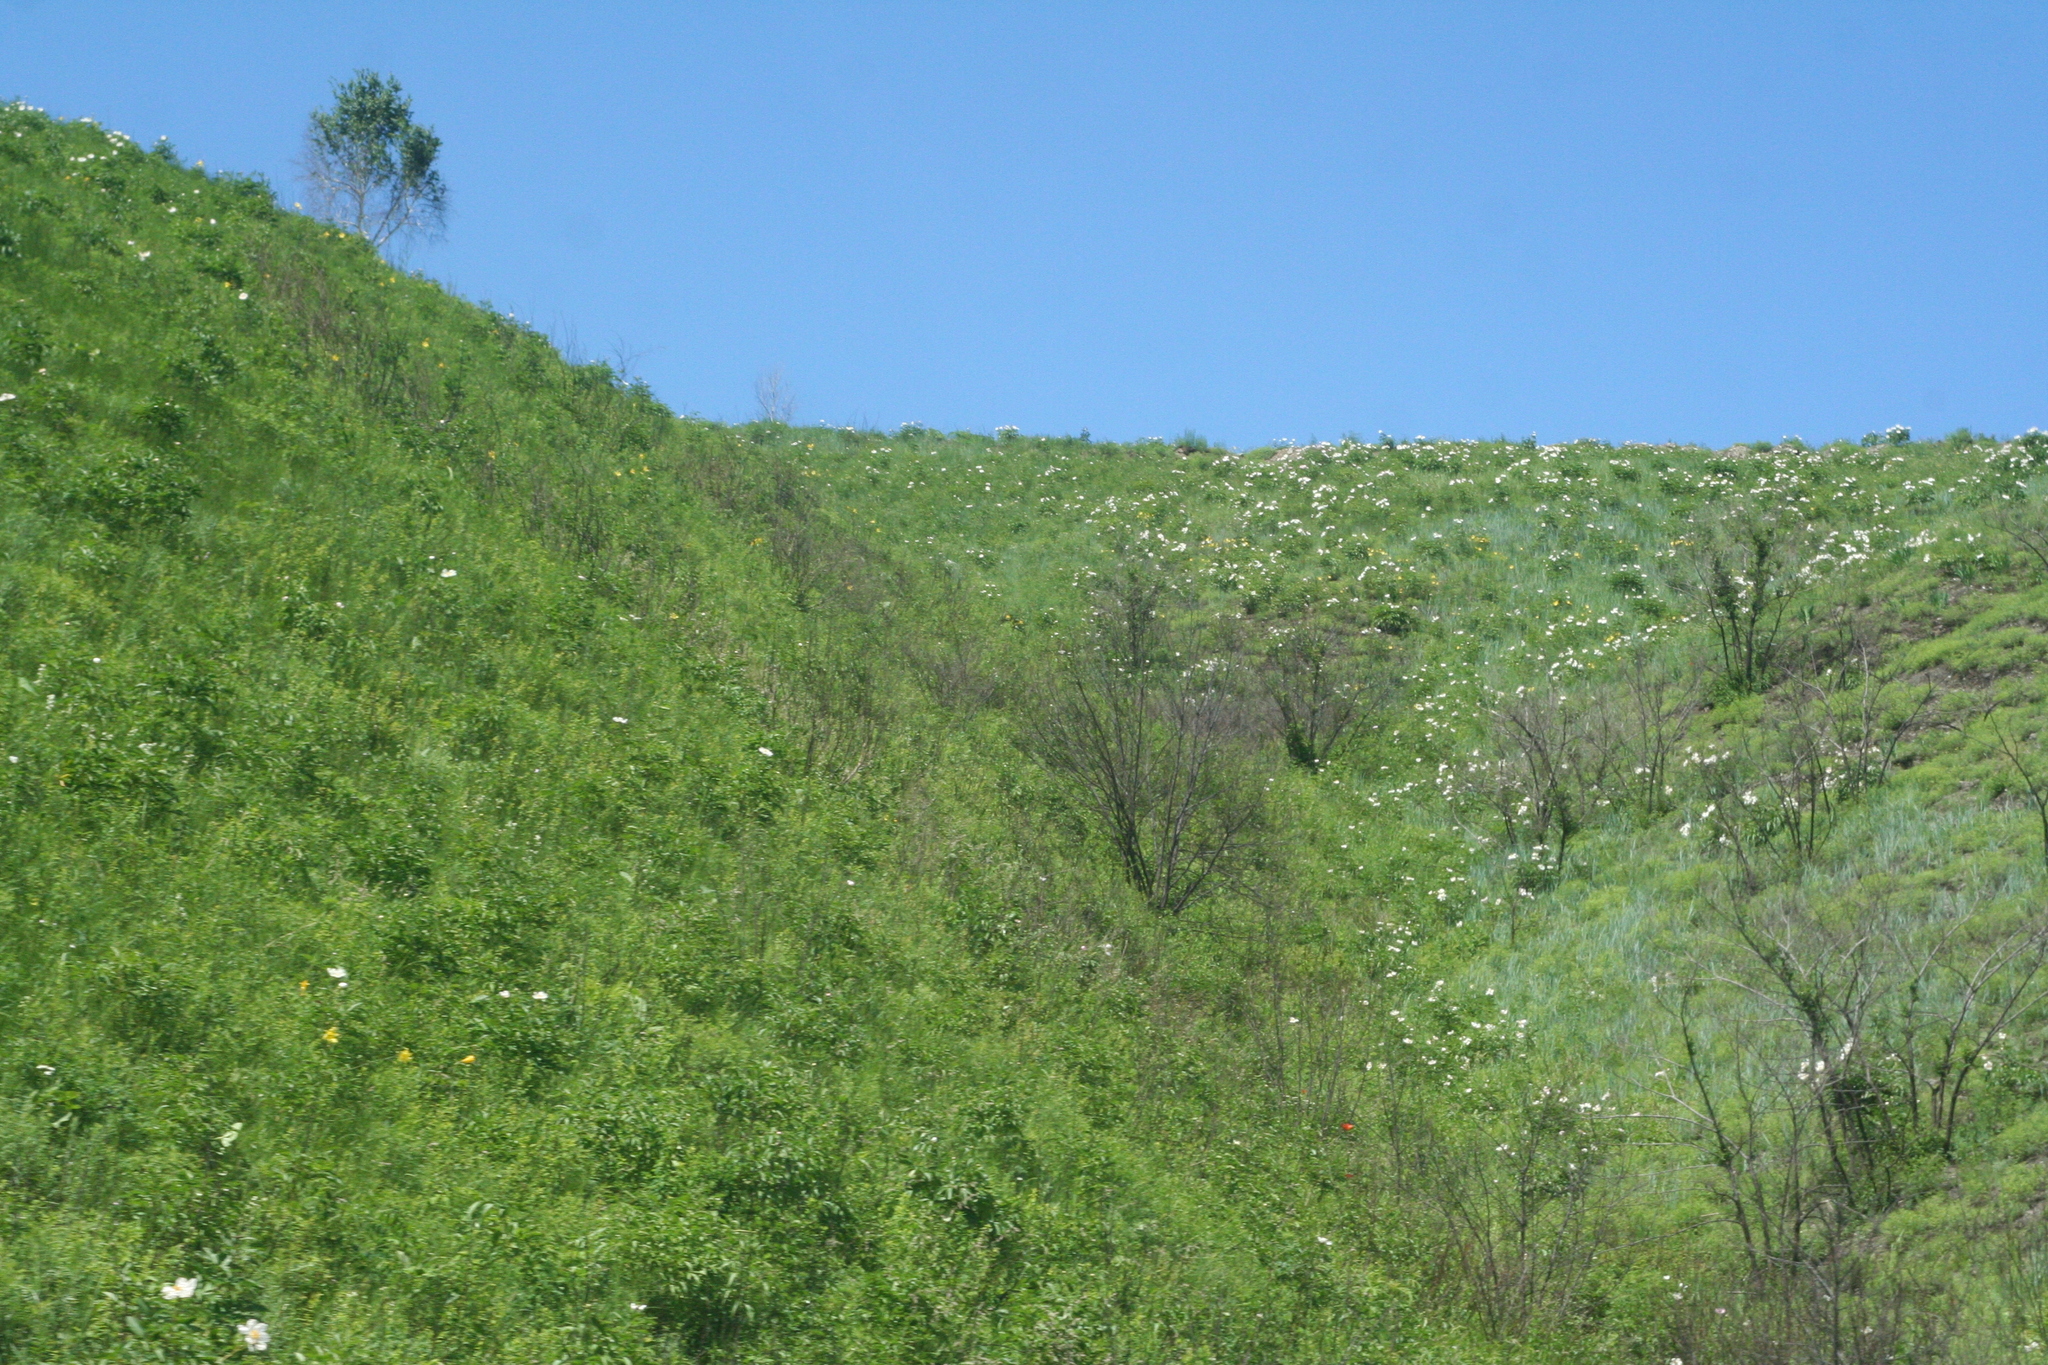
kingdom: Plantae
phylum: Tracheophyta
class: Magnoliopsida
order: Saxifragales
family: Paeoniaceae
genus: Paeonia
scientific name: Paeonia lactiflora
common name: Chinese peony
